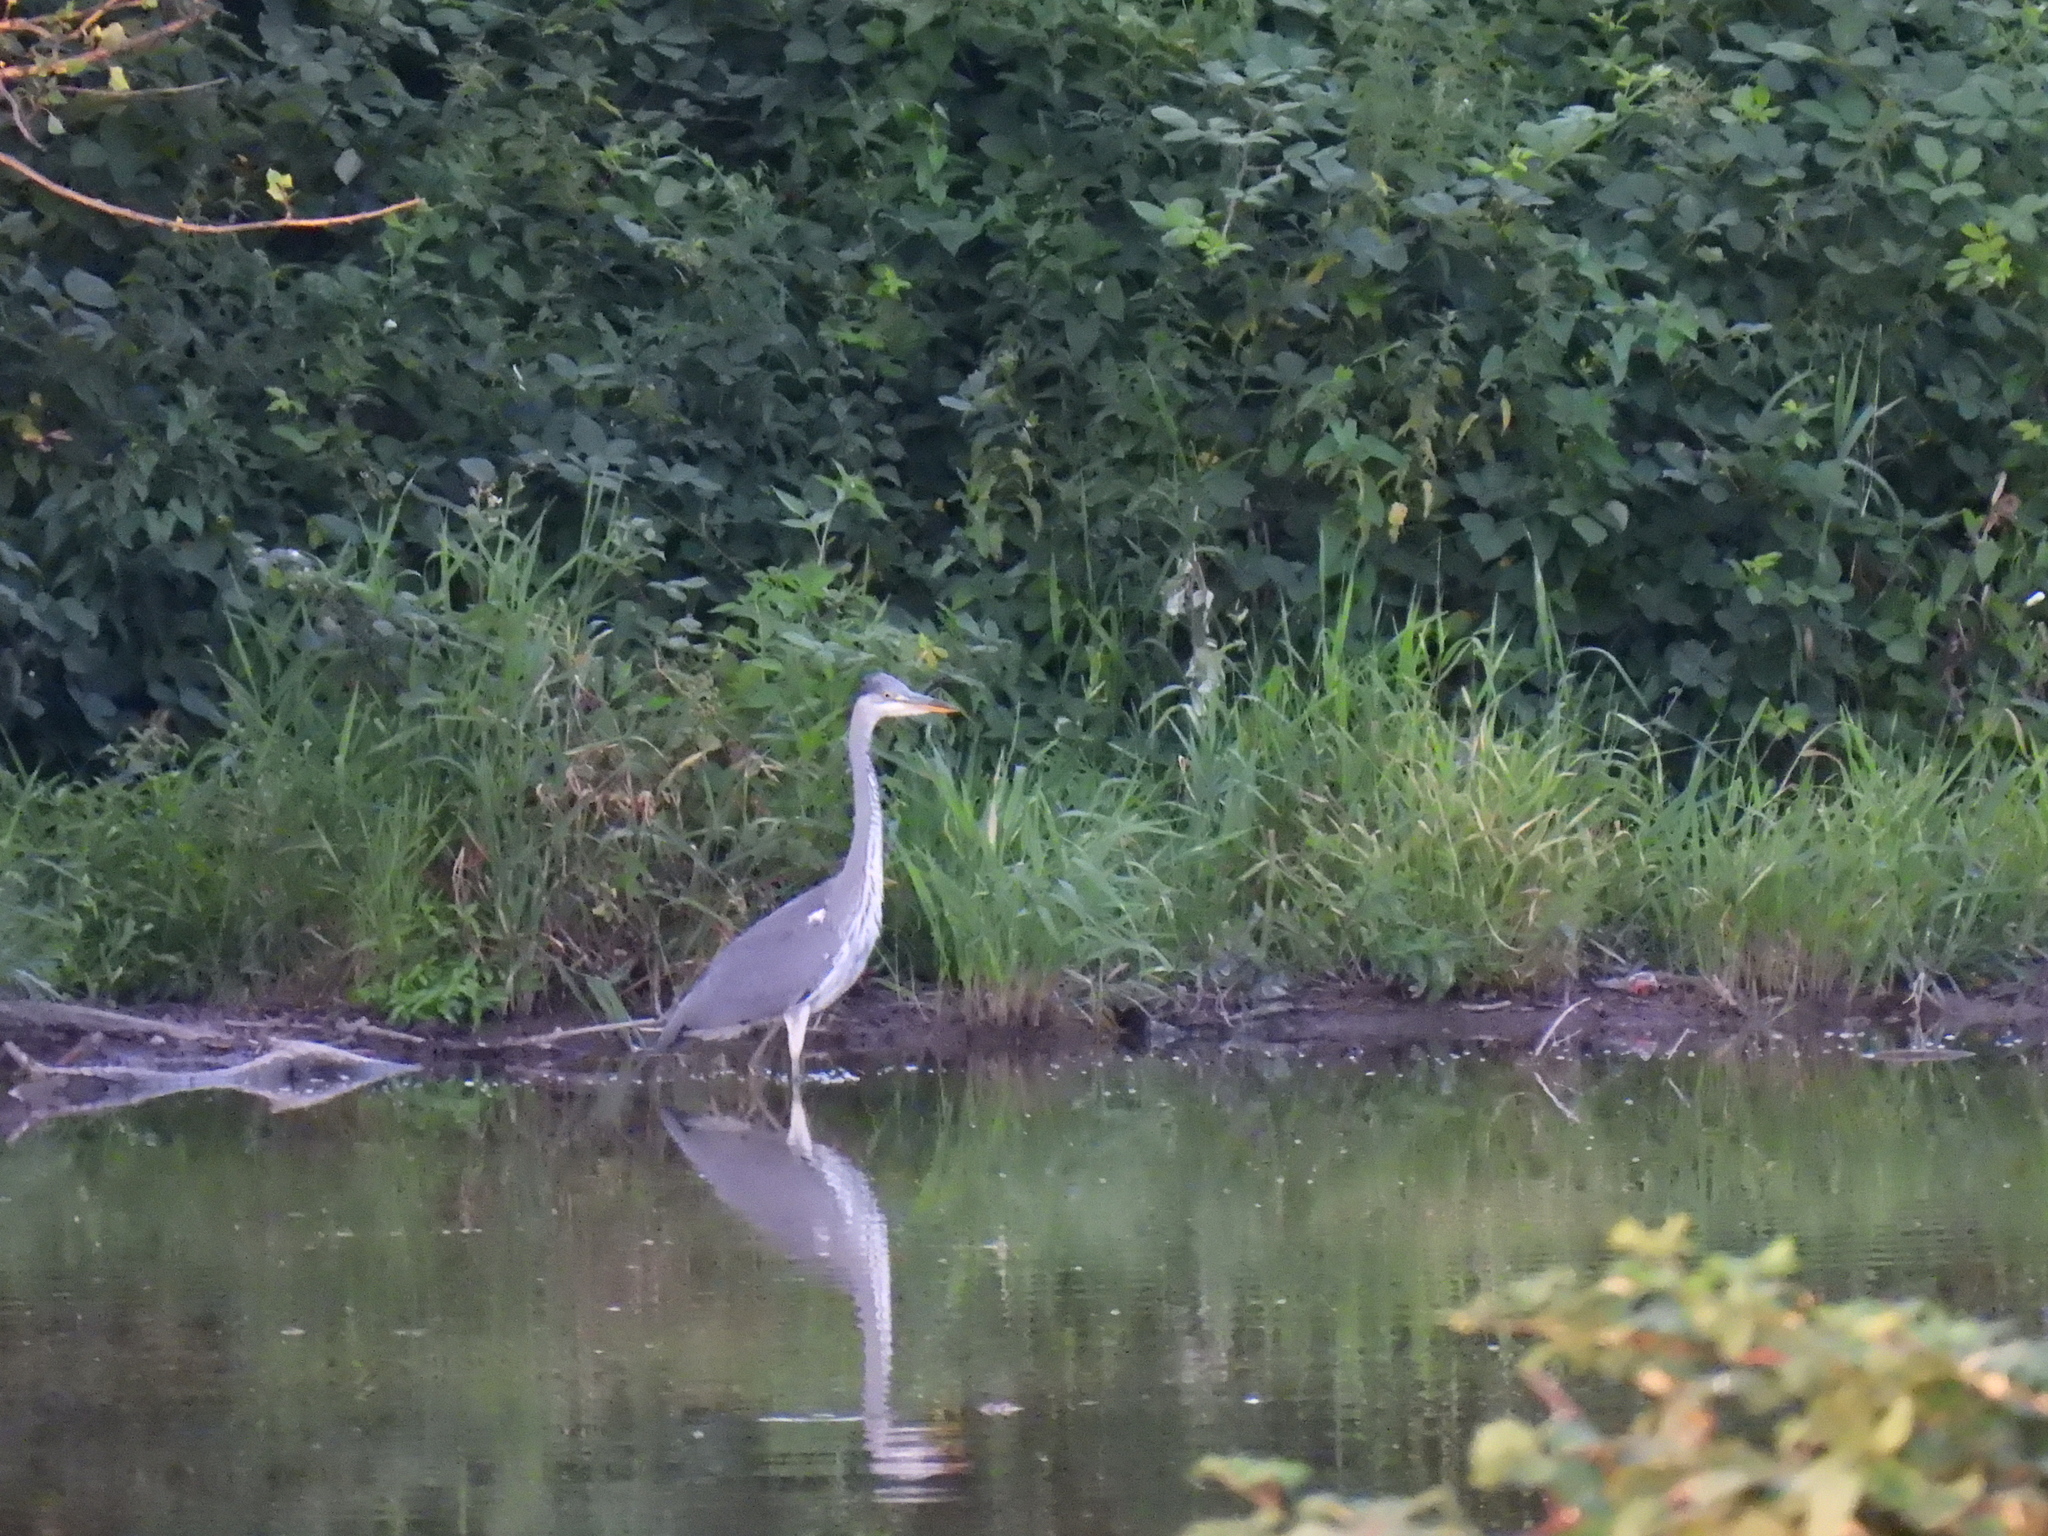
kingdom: Animalia
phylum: Chordata
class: Aves
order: Pelecaniformes
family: Ardeidae
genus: Ardea
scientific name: Ardea cinerea
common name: Grey heron
